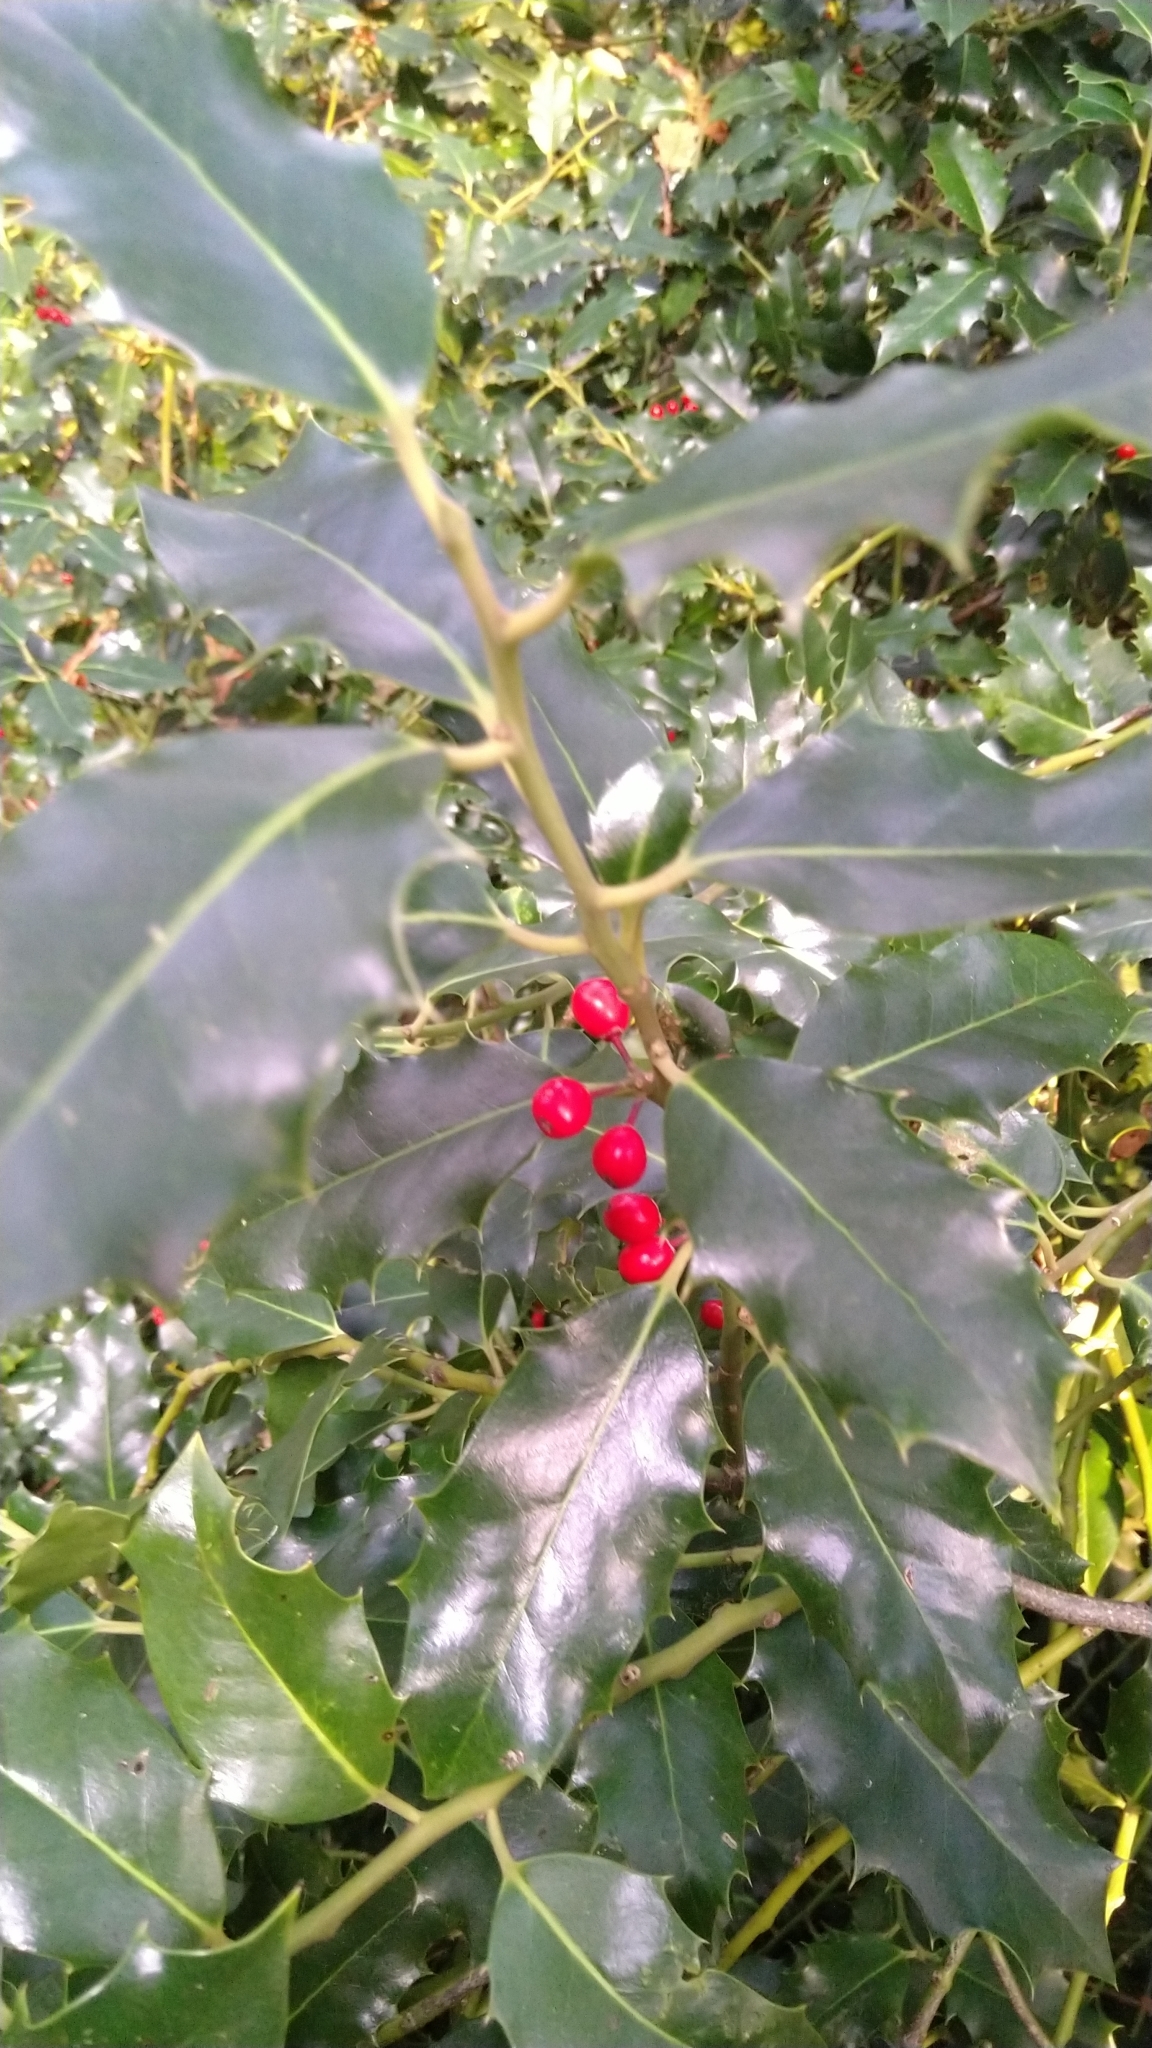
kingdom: Plantae
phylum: Tracheophyta
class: Magnoliopsida
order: Aquifoliales
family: Aquifoliaceae
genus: Ilex
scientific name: Ilex aquifolium
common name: English holly
